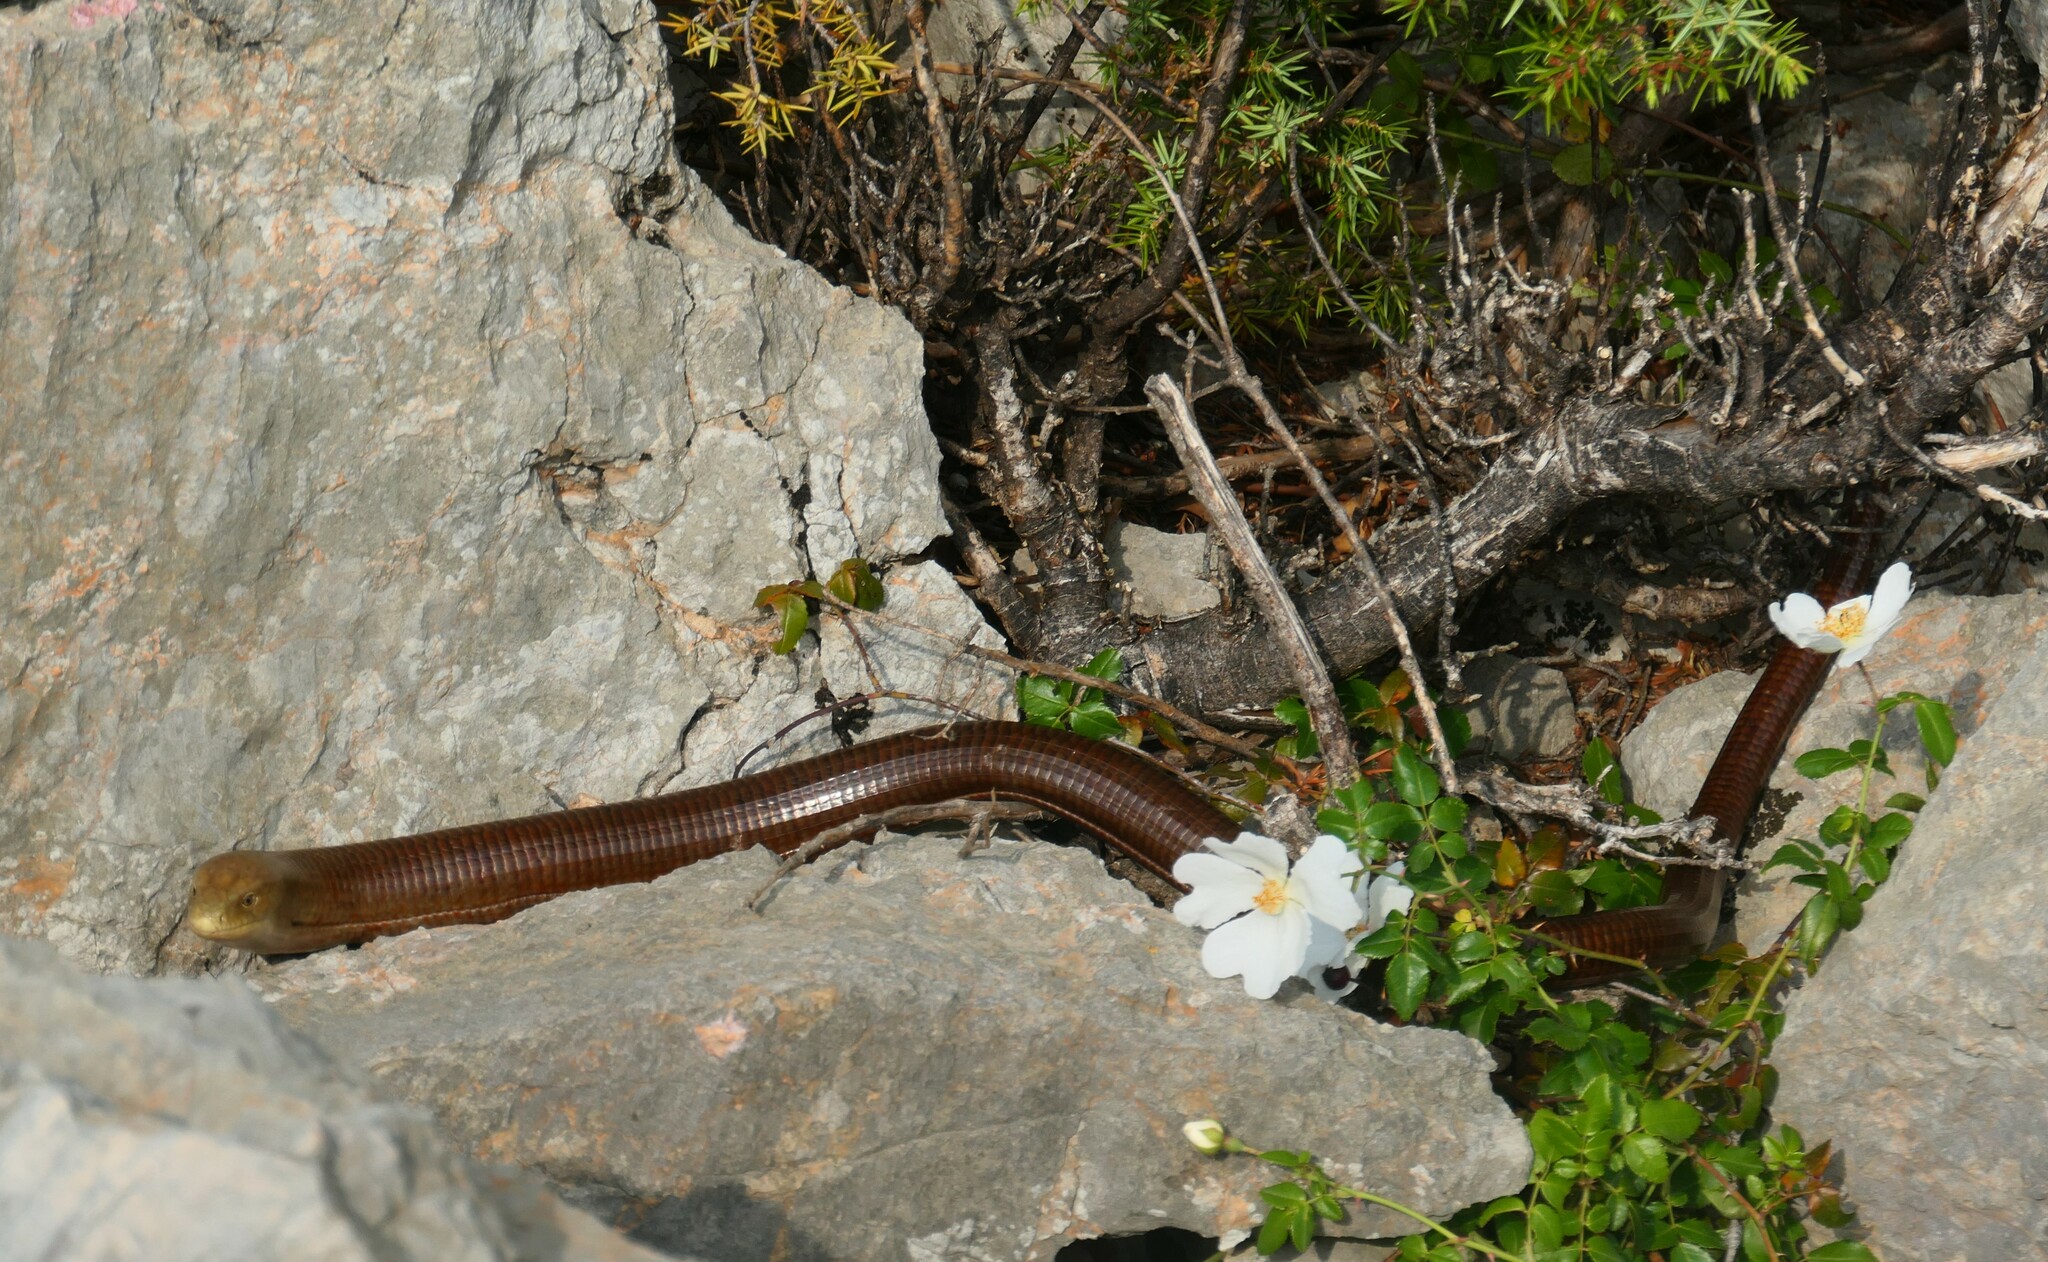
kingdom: Animalia
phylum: Chordata
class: Squamata
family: Anguidae
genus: Pseudopus
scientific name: Pseudopus apodus
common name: European glass lizard
